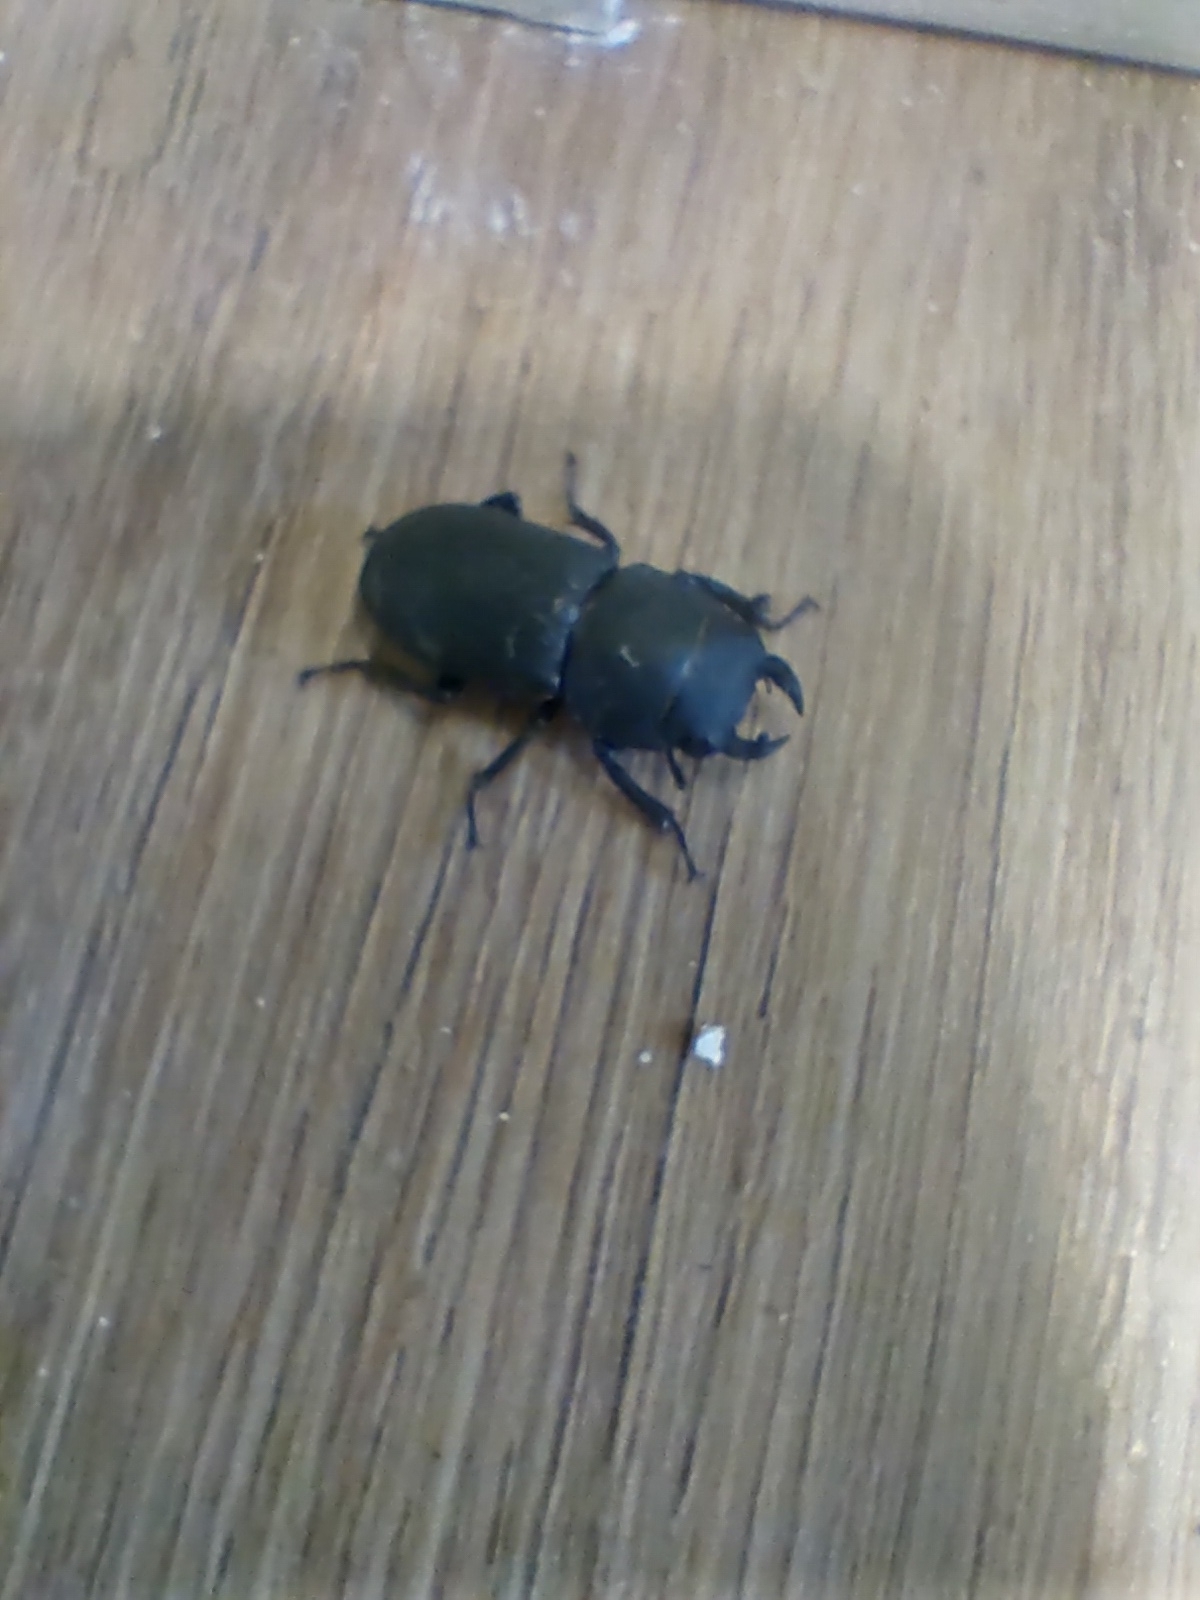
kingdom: Animalia
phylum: Arthropoda
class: Insecta
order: Coleoptera
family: Lucanidae
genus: Dorcus
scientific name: Dorcus parallelipipedus
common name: Lesser stag beetle
